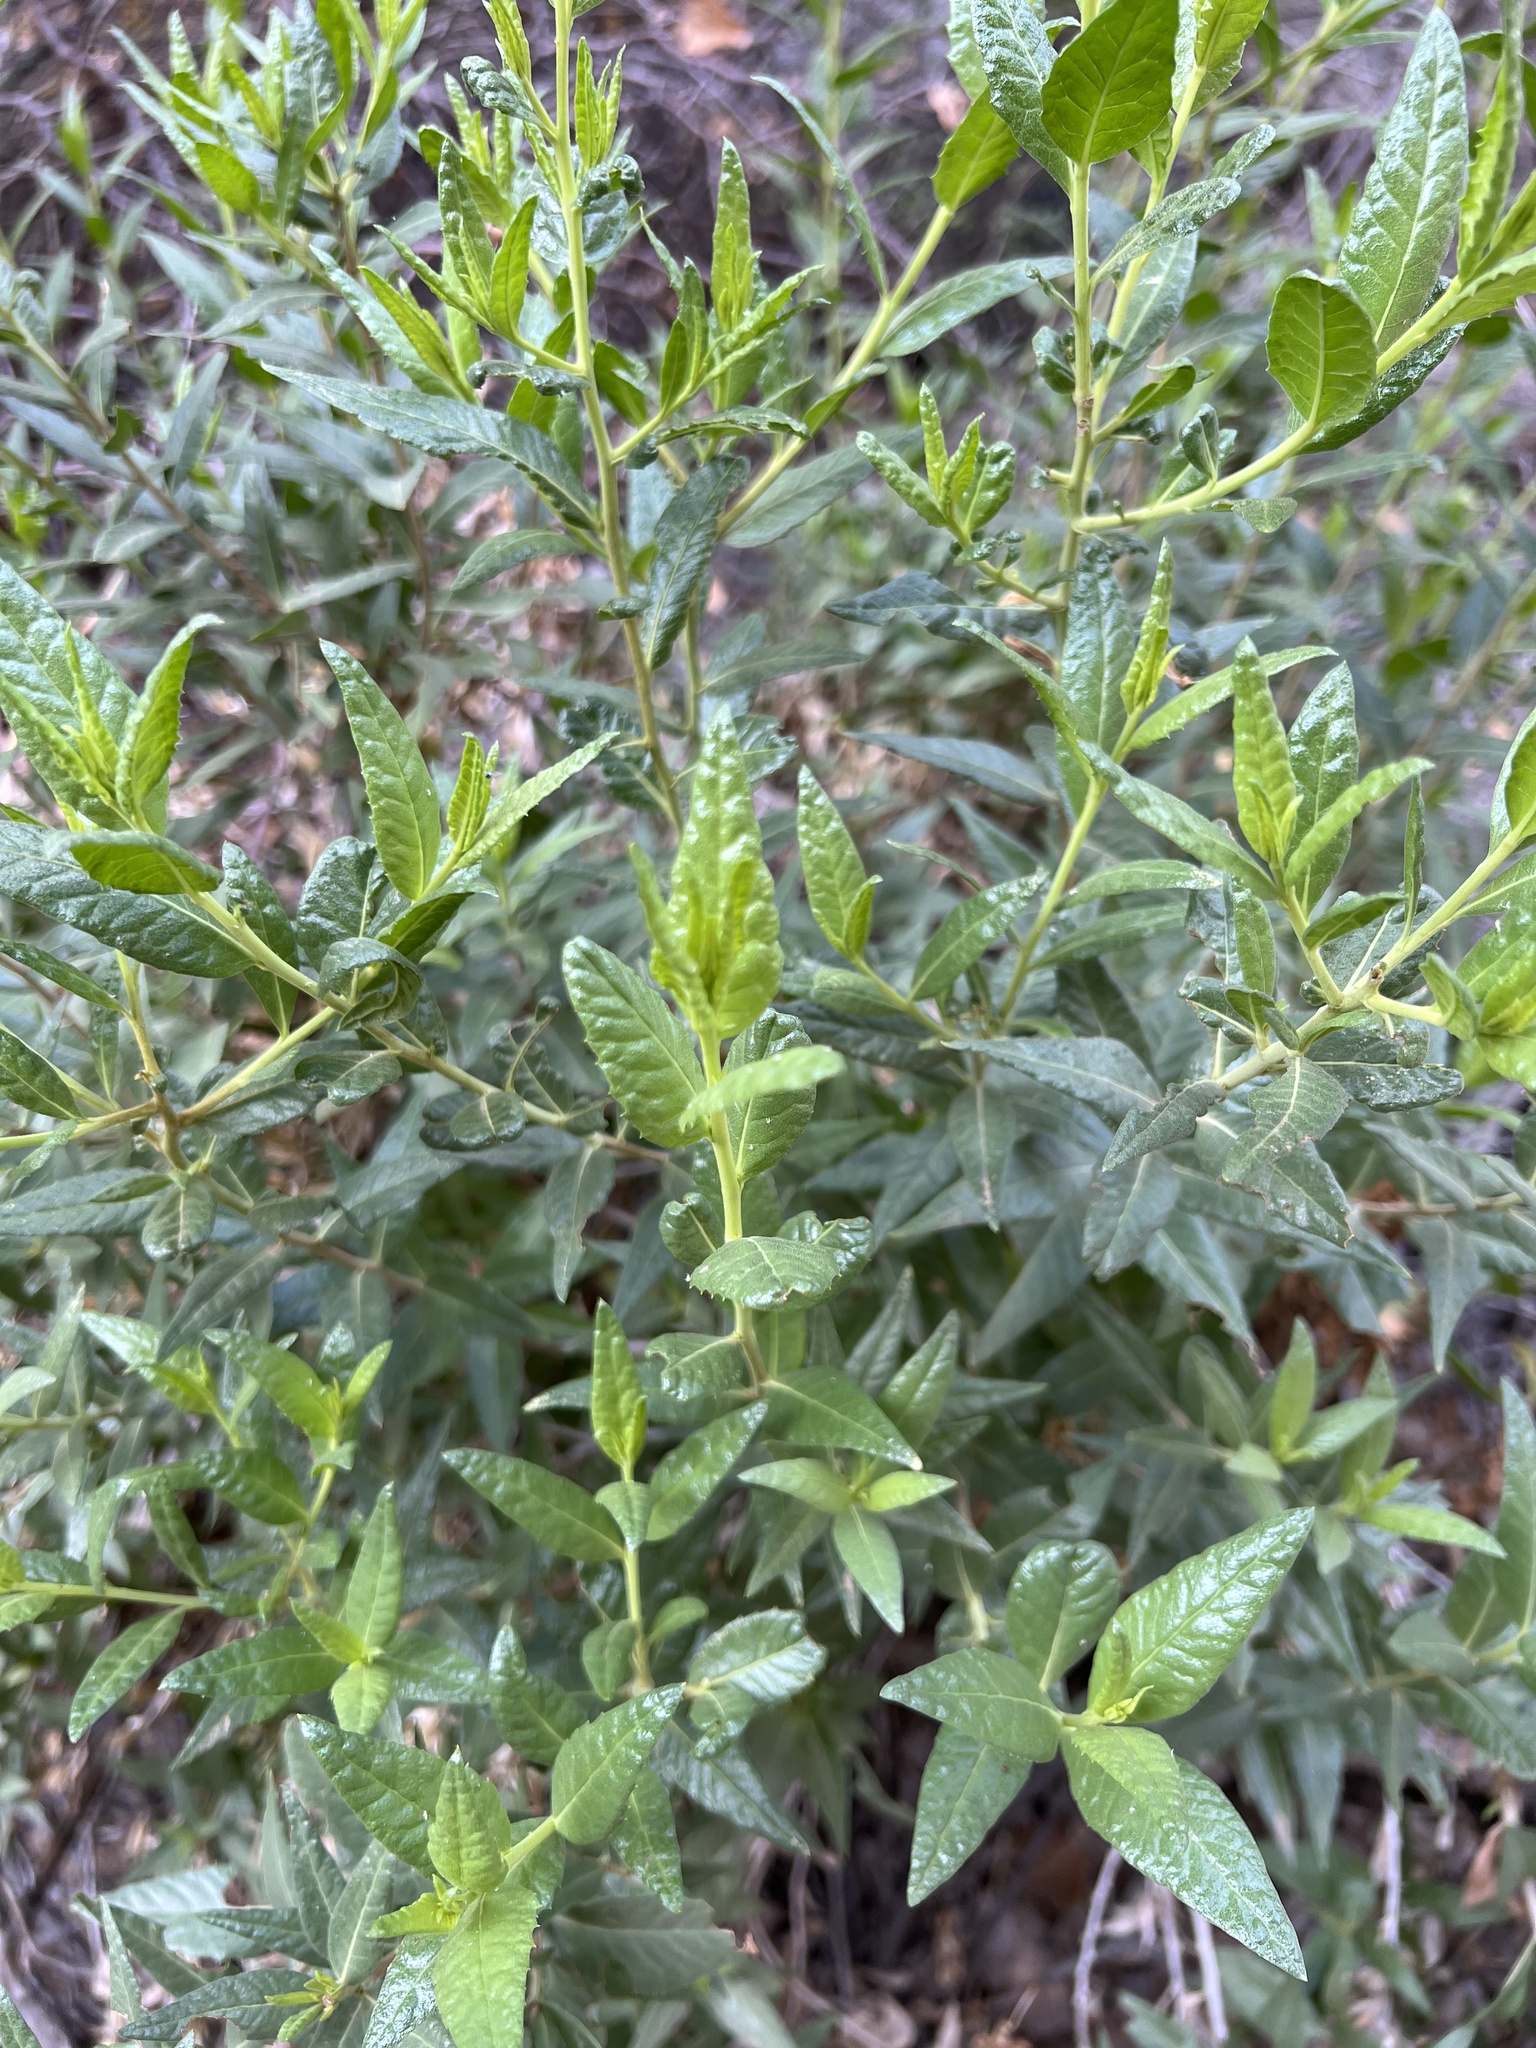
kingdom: Plantae
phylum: Tracheophyta
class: Magnoliopsida
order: Asterales
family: Asteraceae
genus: Trixis
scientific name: Trixis californica
